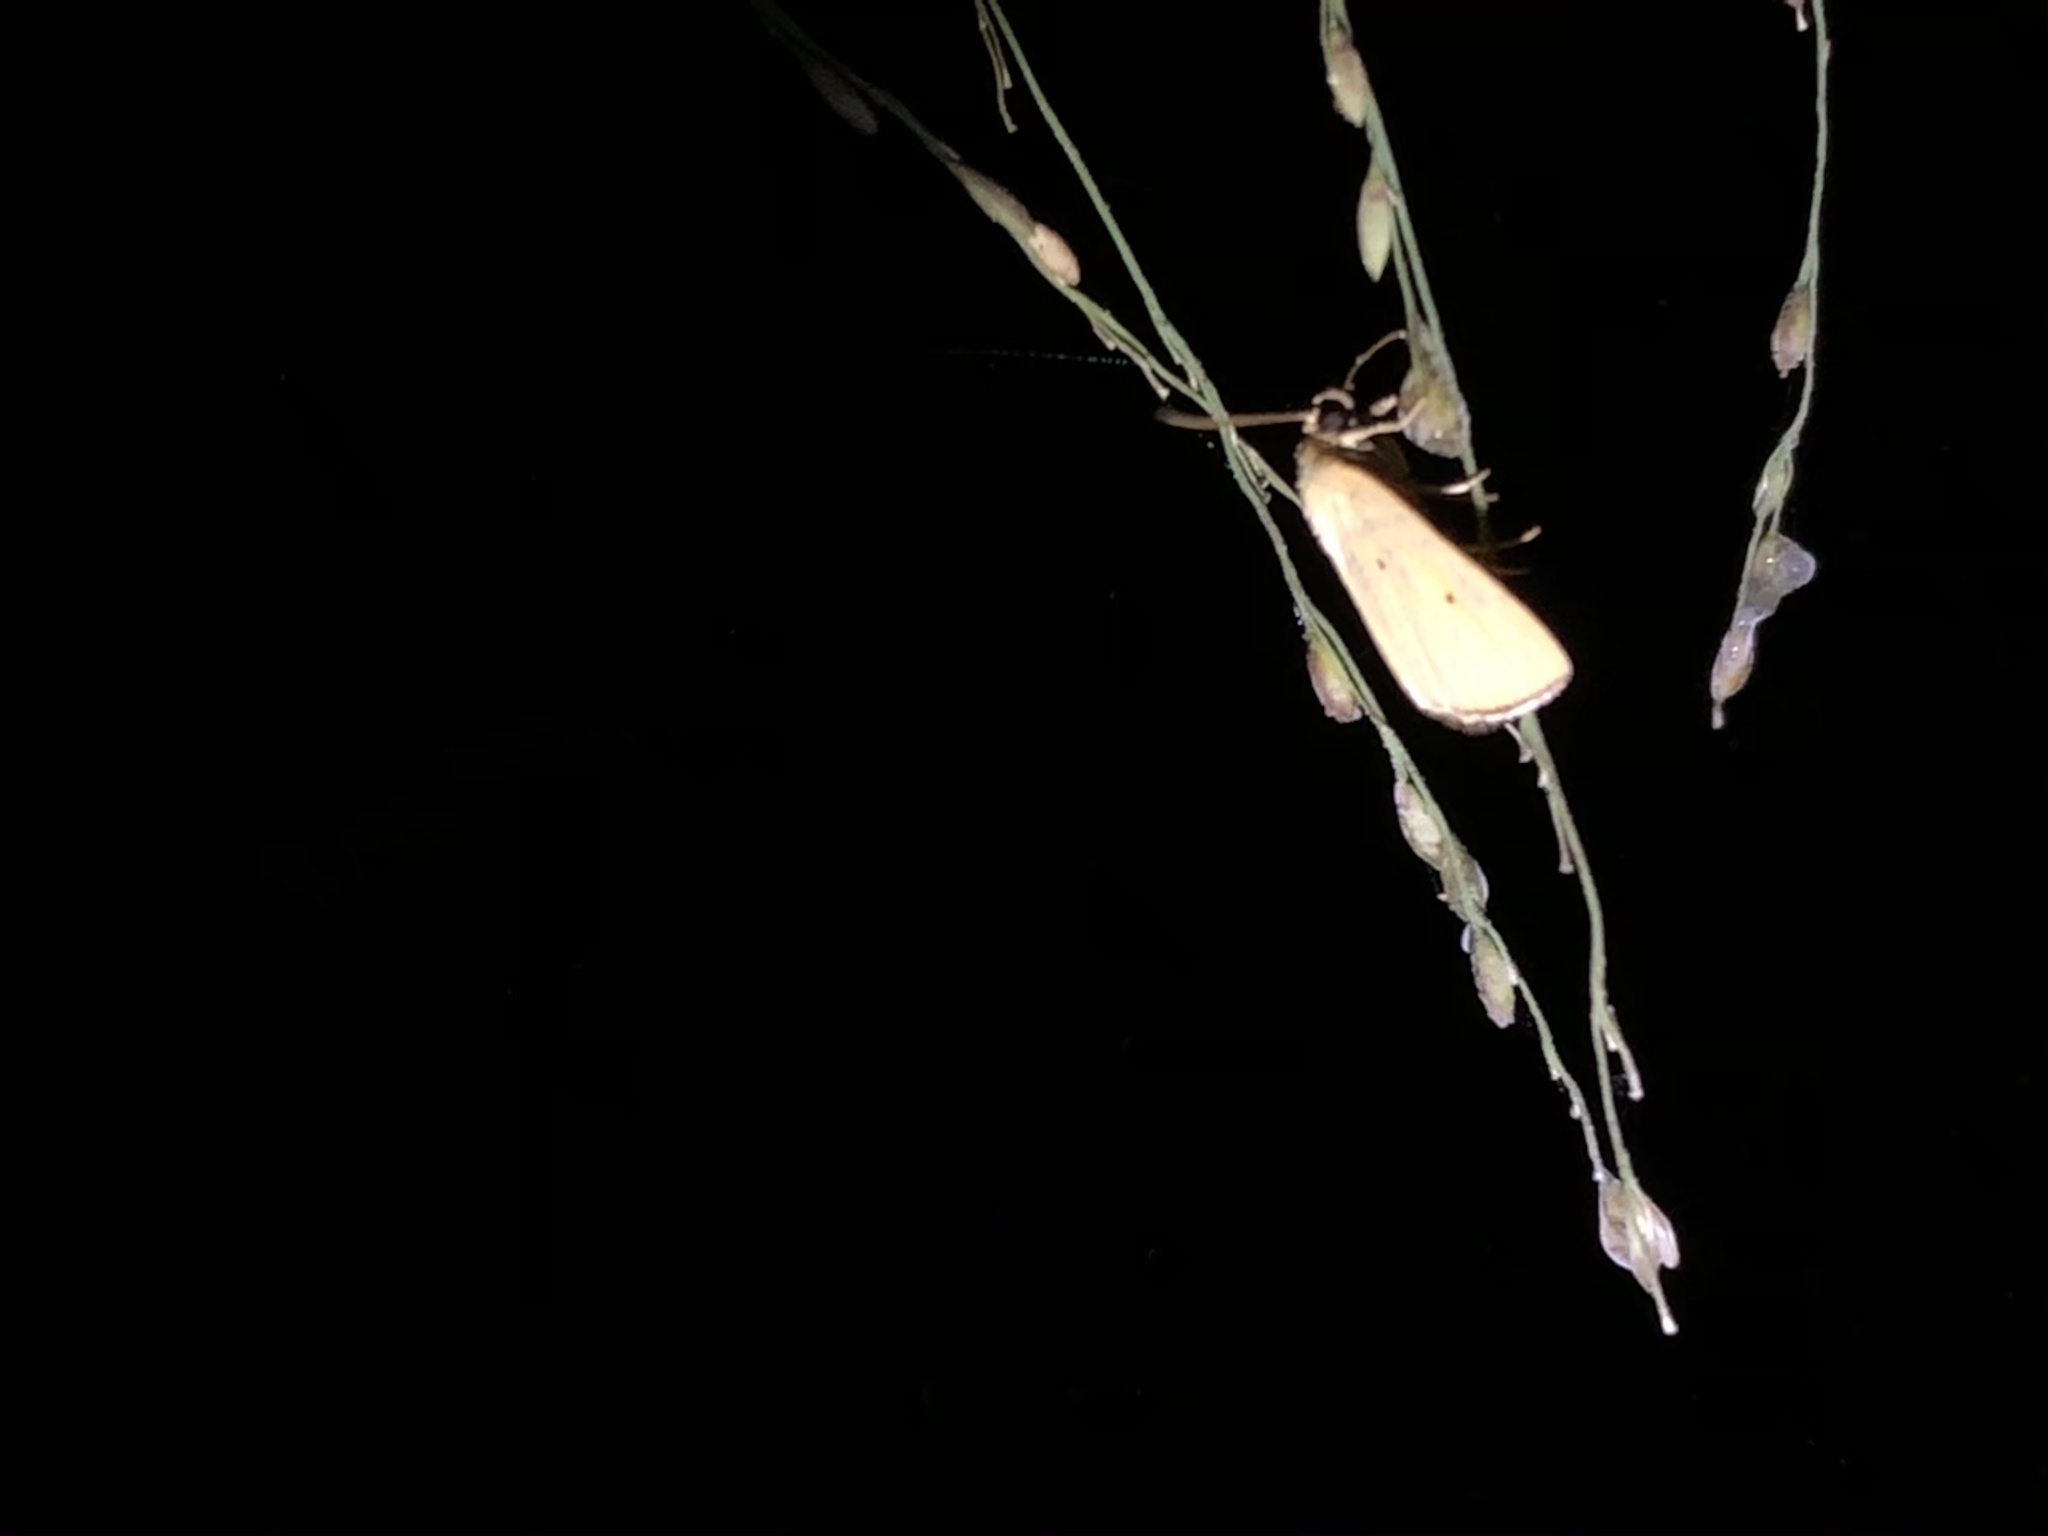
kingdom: Animalia
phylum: Arthropoda
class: Insecta
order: Lepidoptera
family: Noctuidae
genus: Marimatha
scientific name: Marimatha nigrofimbria
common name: Black-bordered lemon moth
